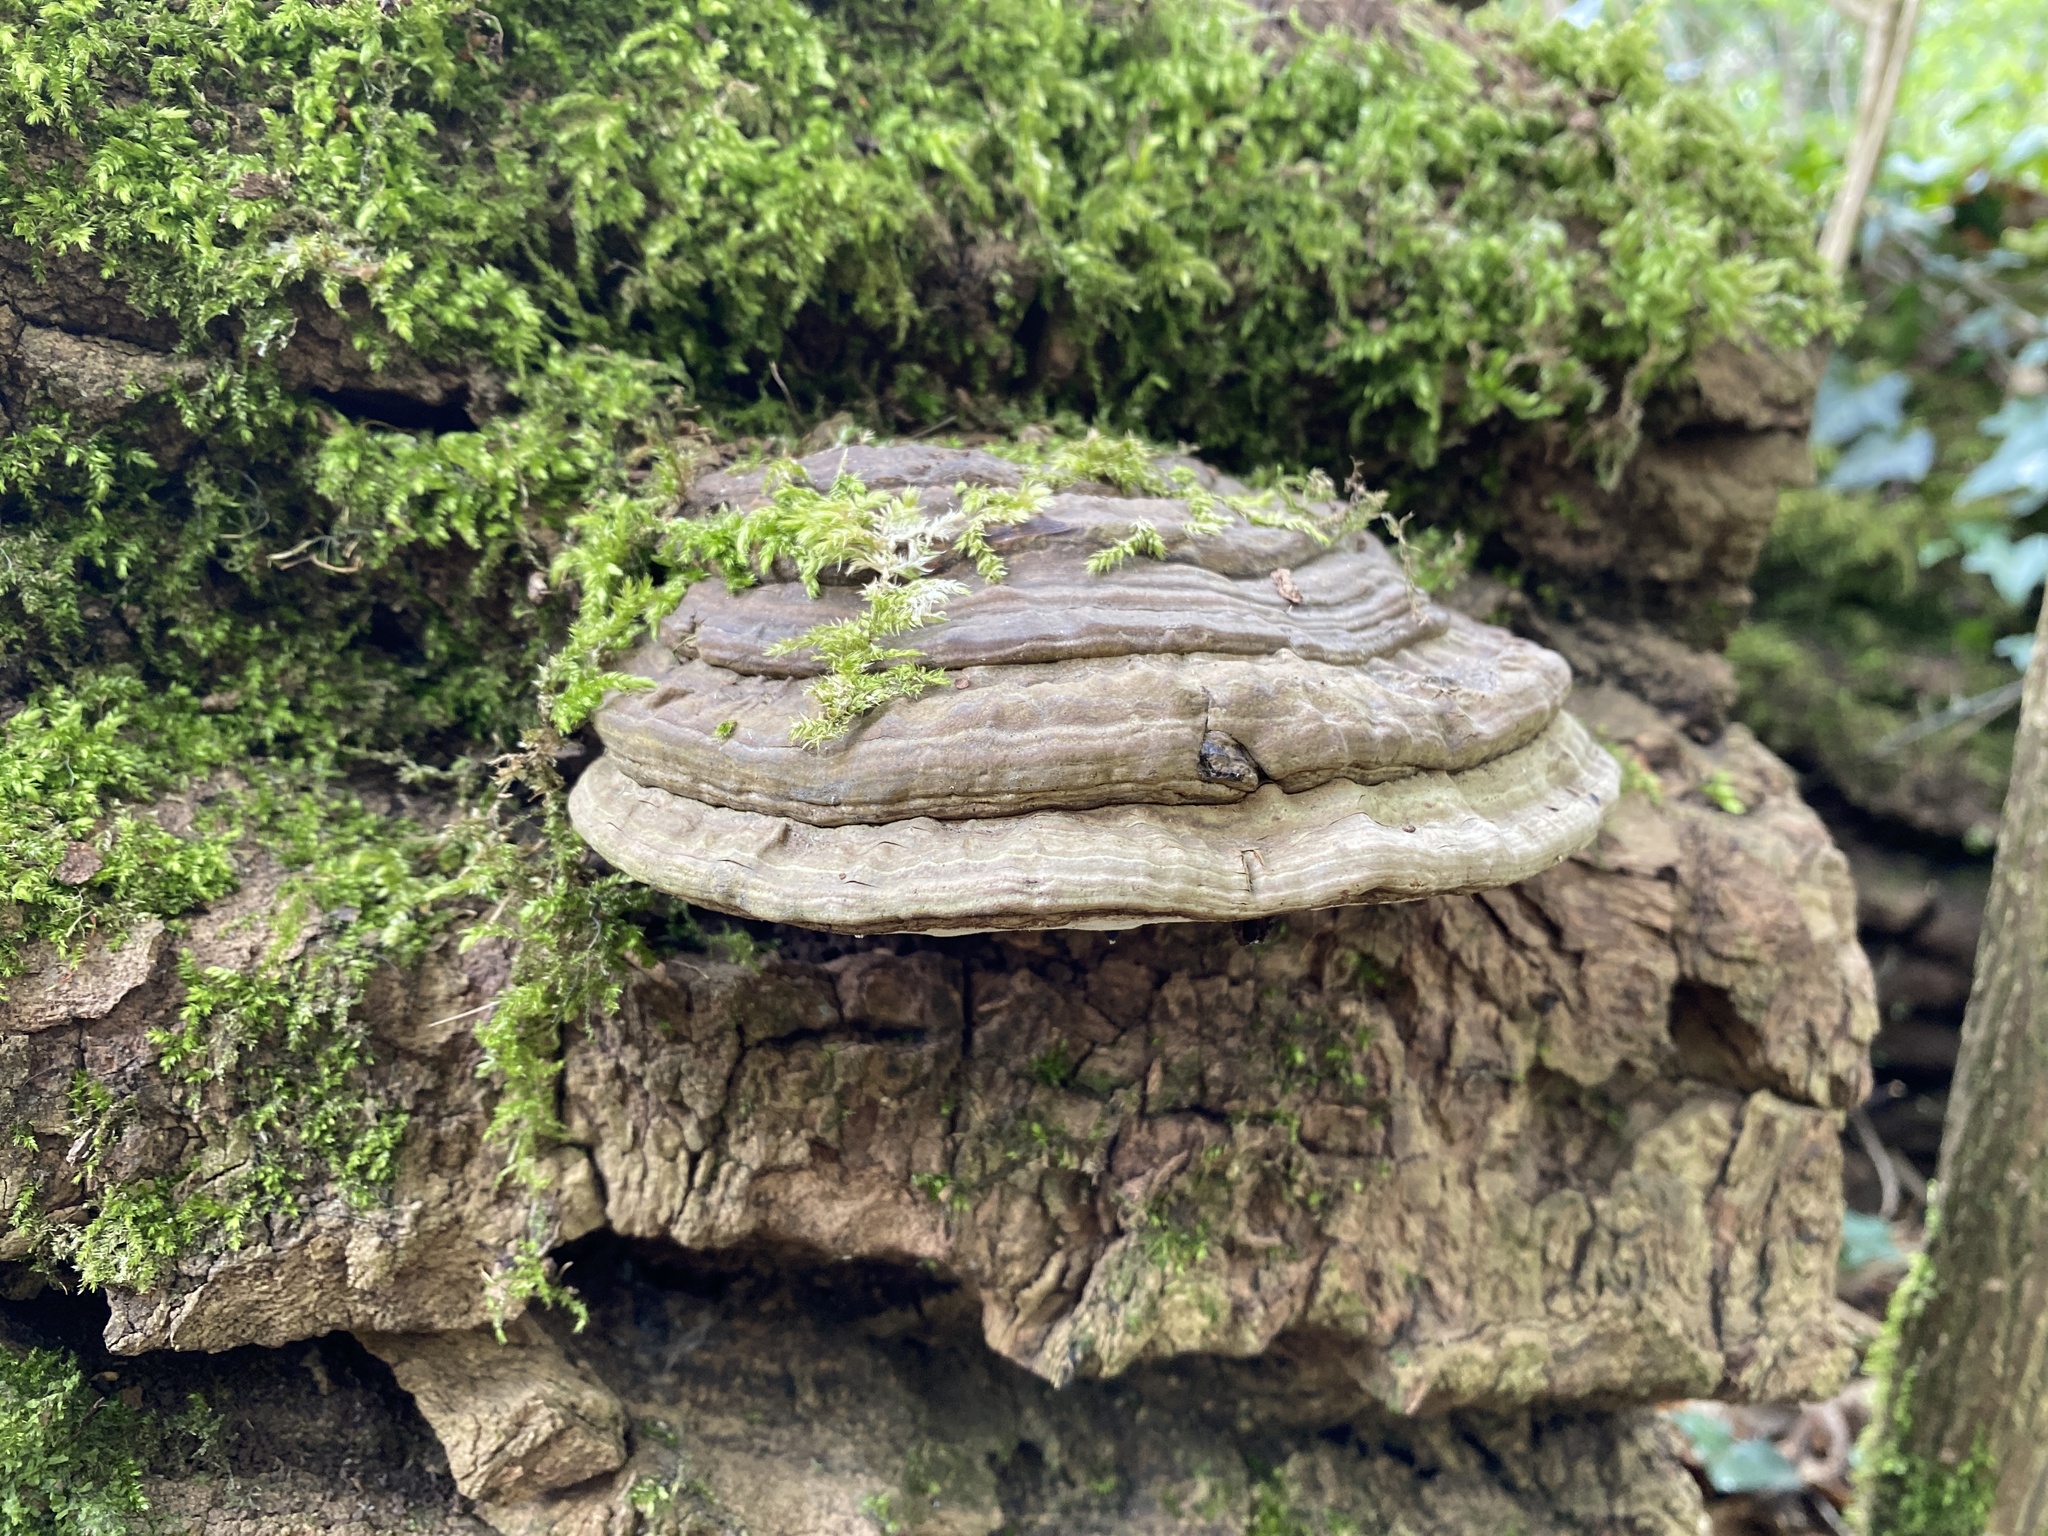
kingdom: Fungi
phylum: Basidiomycota
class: Agaricomycetes
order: Polyporales
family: Polyporaceae
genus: Ganoderma
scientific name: Ganoderma applanatum
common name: Artist's bracket
